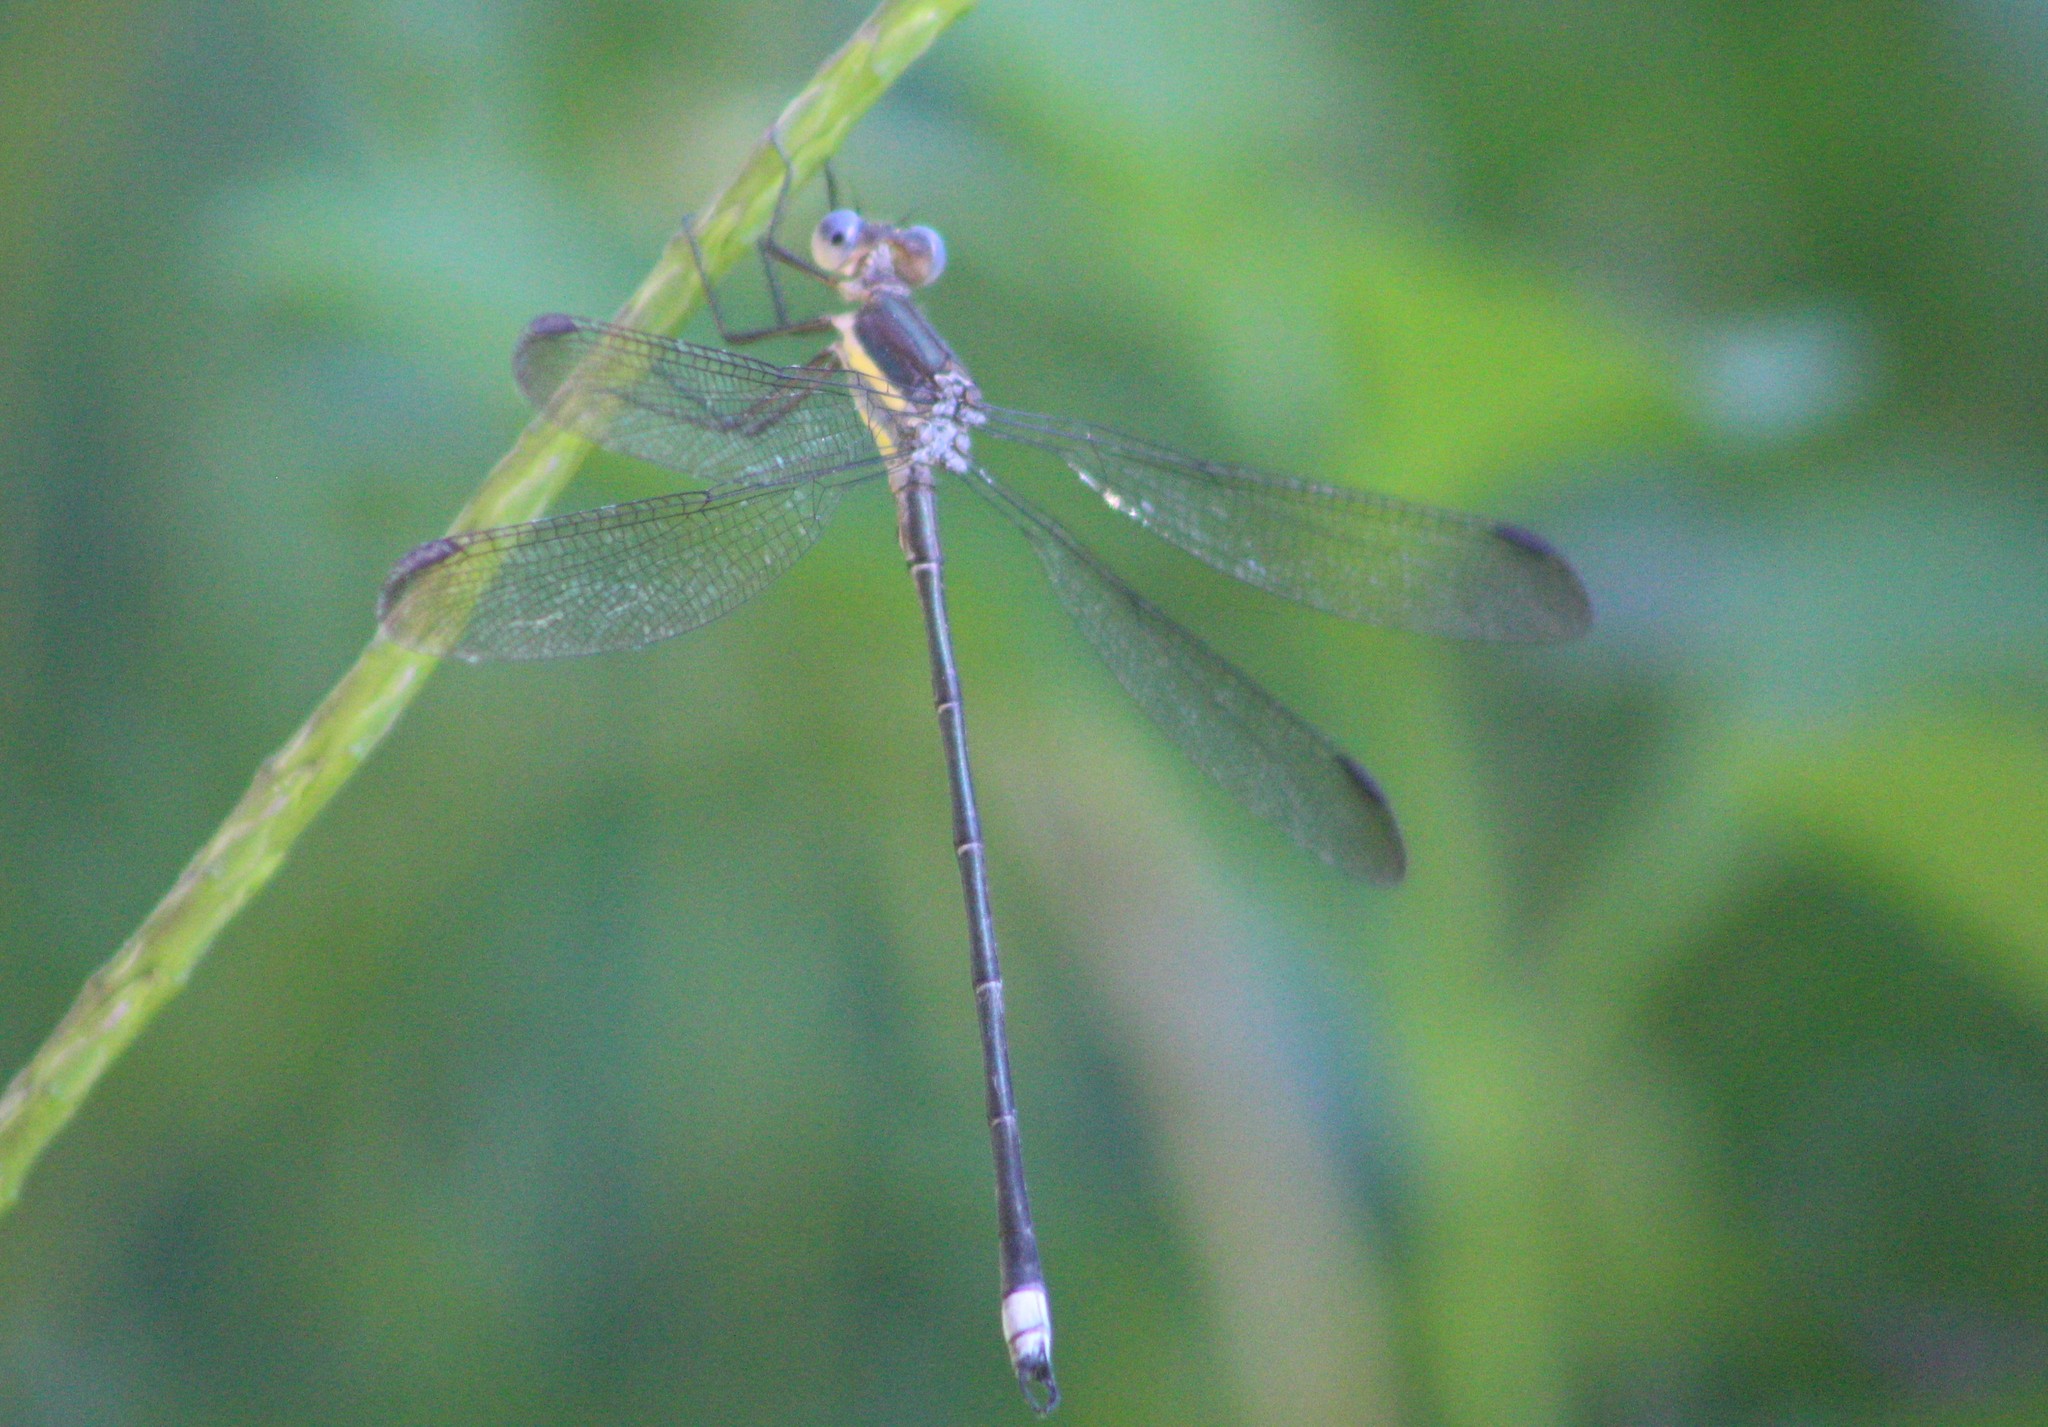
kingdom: Animalia
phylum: Arthropoda
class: Insecta
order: Odonata
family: Lestidae
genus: Archilestes
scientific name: Archilestes grandis
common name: Great spreadwing
